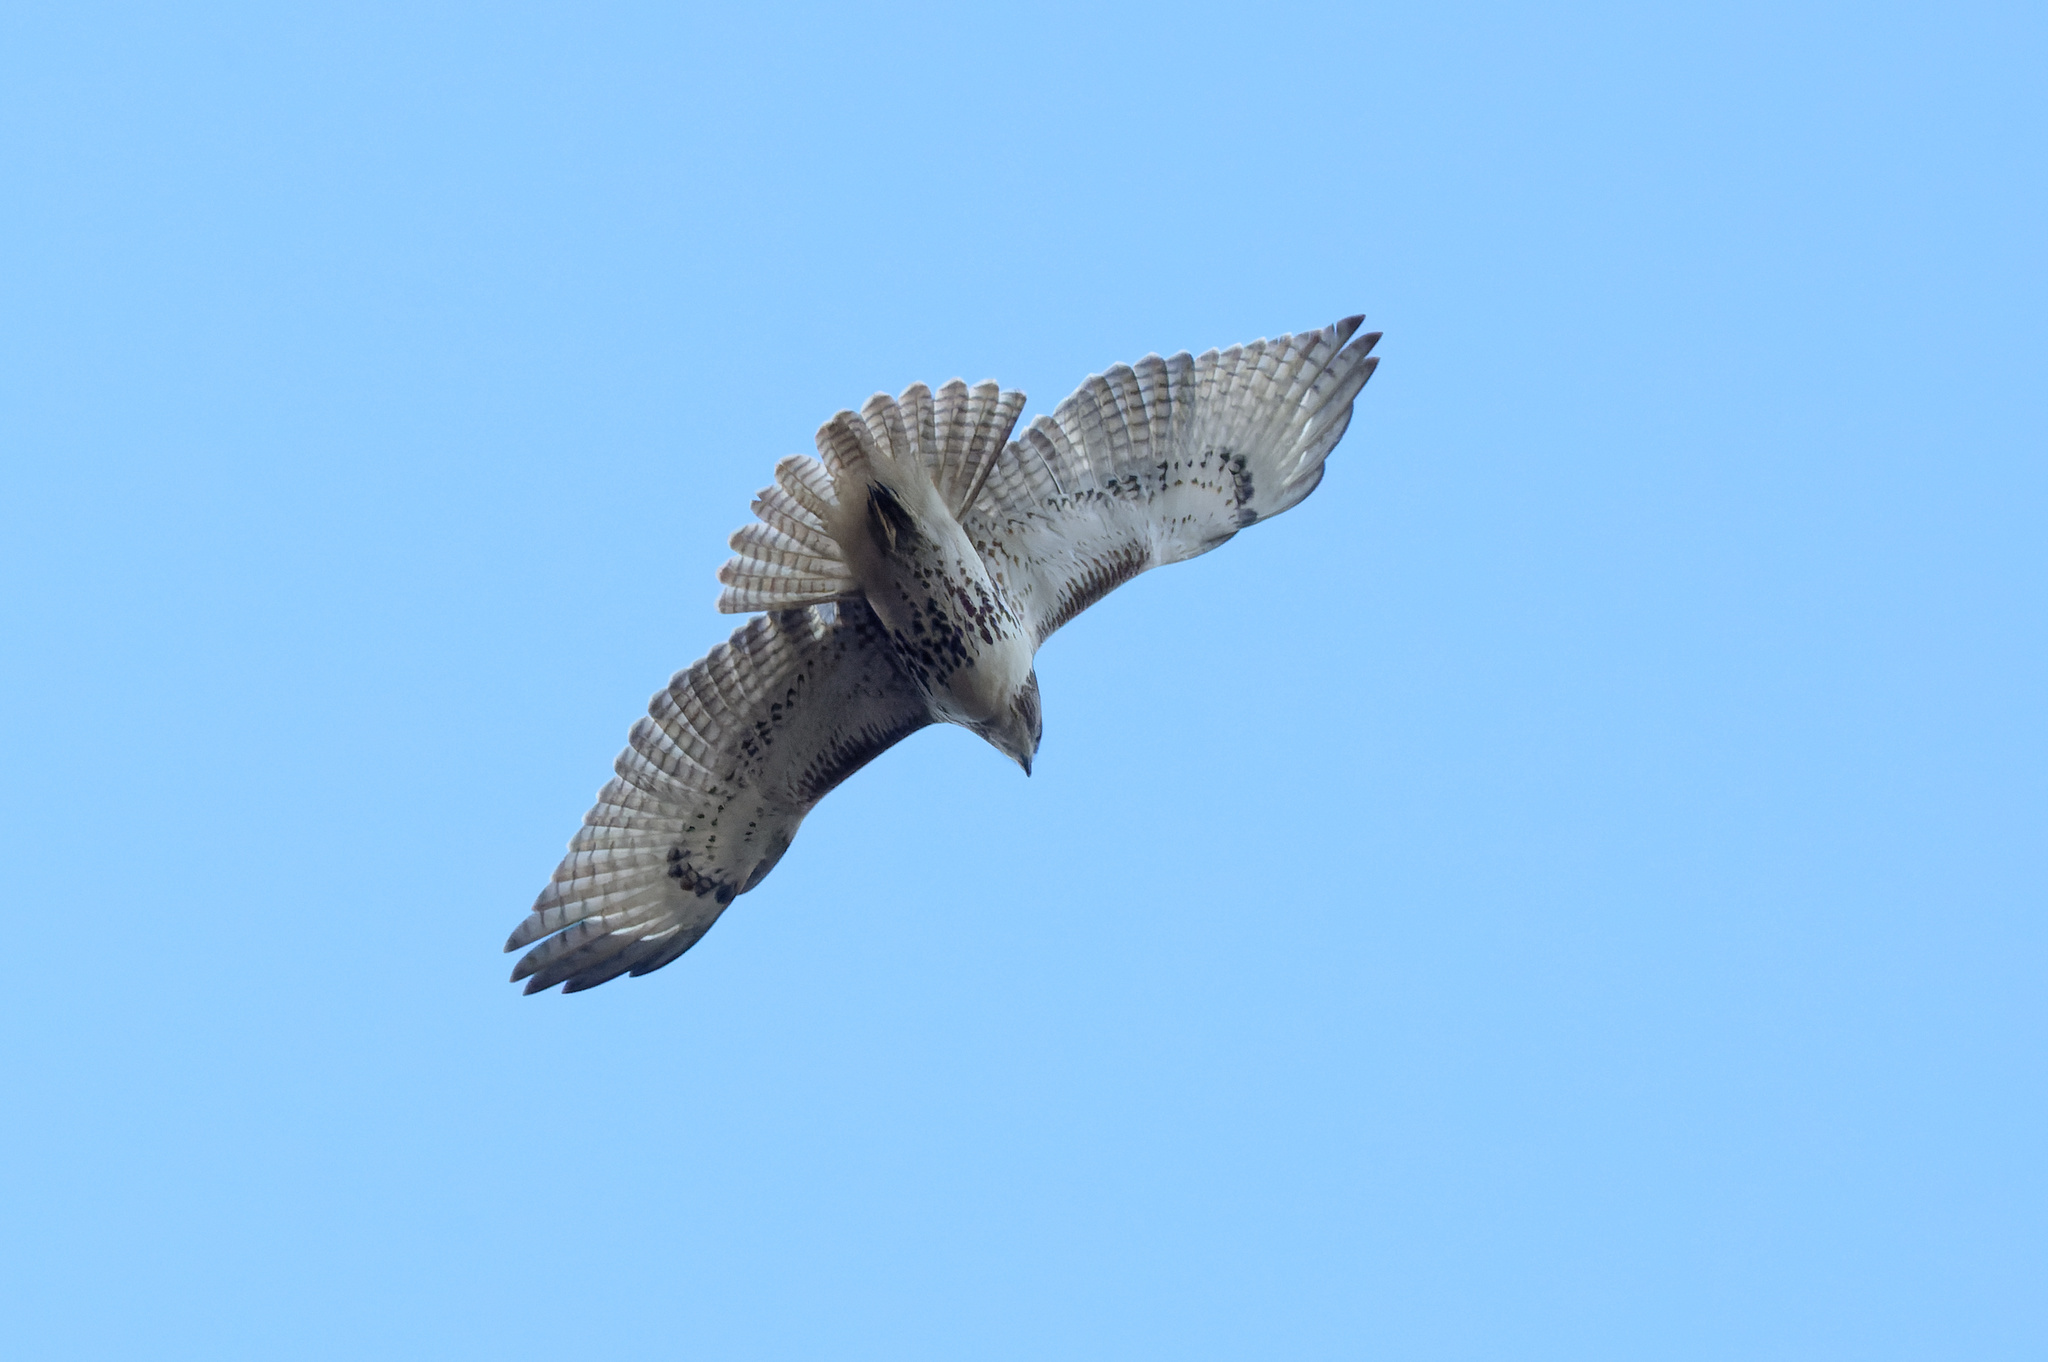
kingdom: Animalia
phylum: Chordata
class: Aves
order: Accipitriformes
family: Accipitridae
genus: Buteo
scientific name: Buteo jamaicensis
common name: Red-tailed hawk
